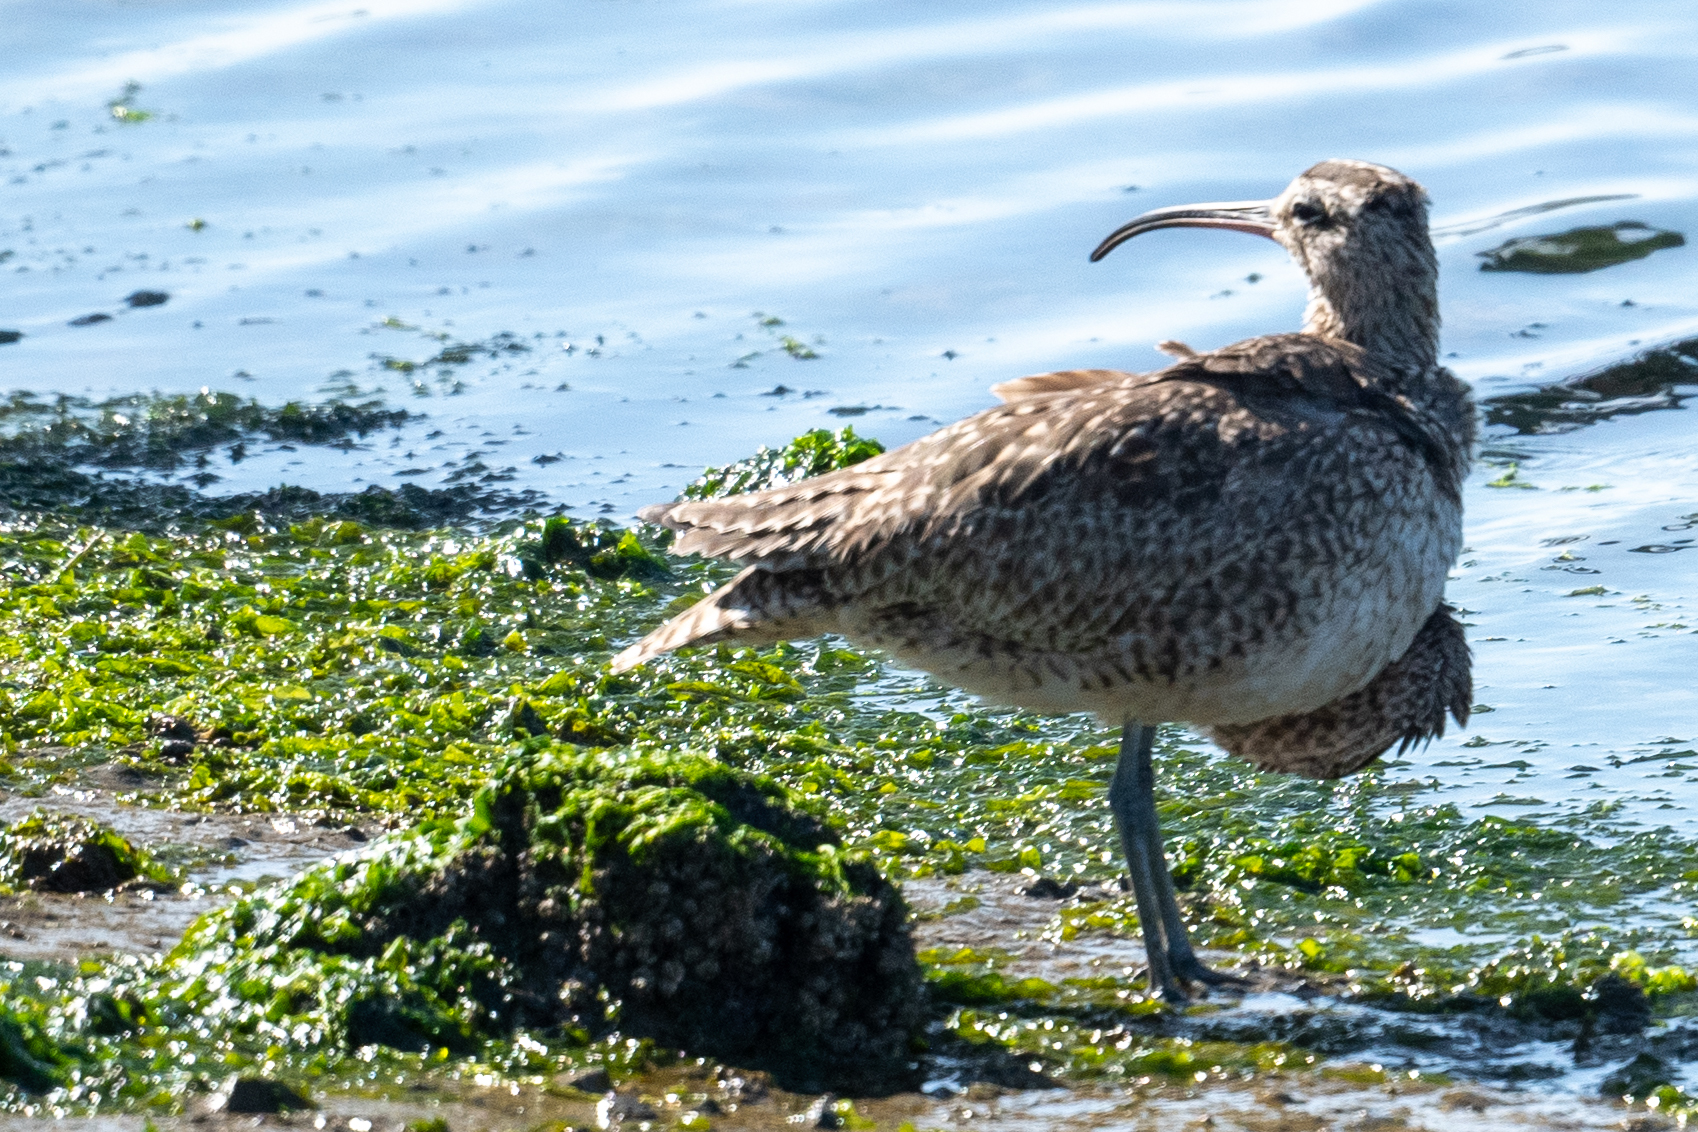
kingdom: Animalia
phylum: Chordata
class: Aves
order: Charadriiformes
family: Scolopacidae
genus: Numenius
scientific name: Numenius phaeopus
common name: Whimbrel
